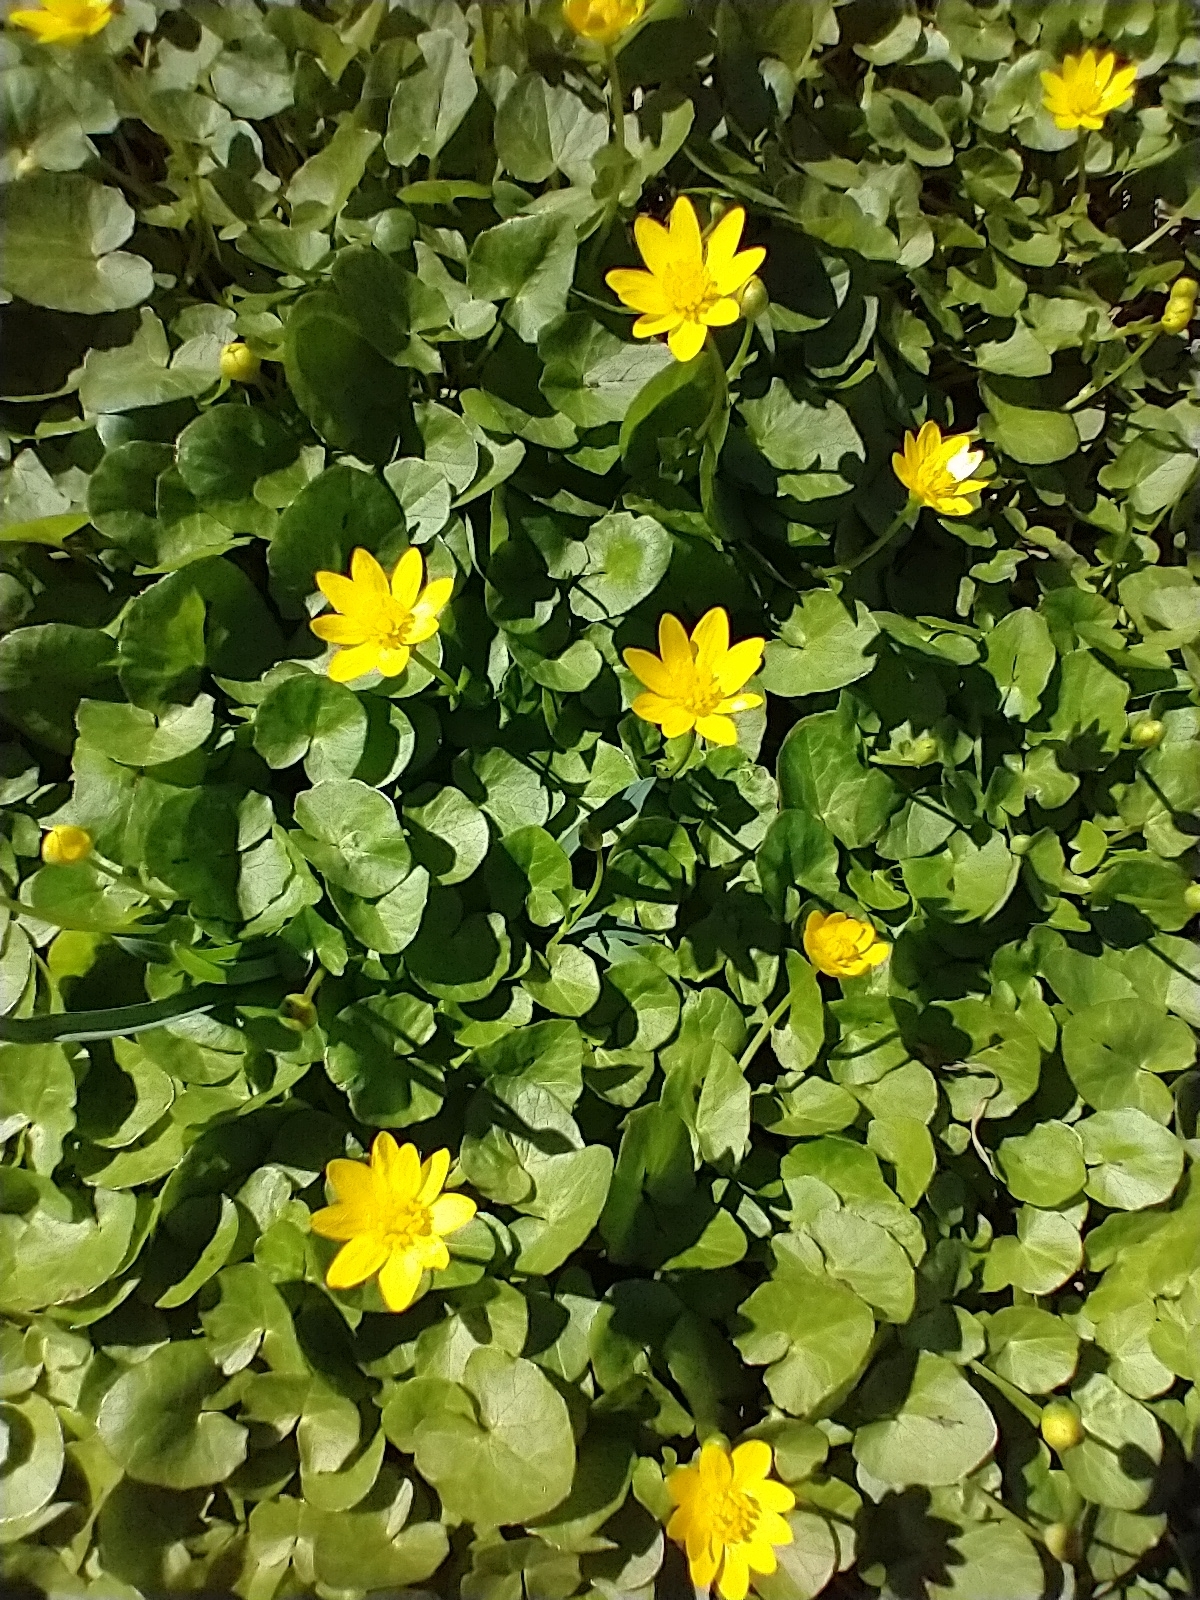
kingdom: Plantae
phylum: Tracheophyta
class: Magnoliopsida
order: Ranunculales
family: Ranunculaceae
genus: Ficaria
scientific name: Ficaria verna
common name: Lesser celandine
